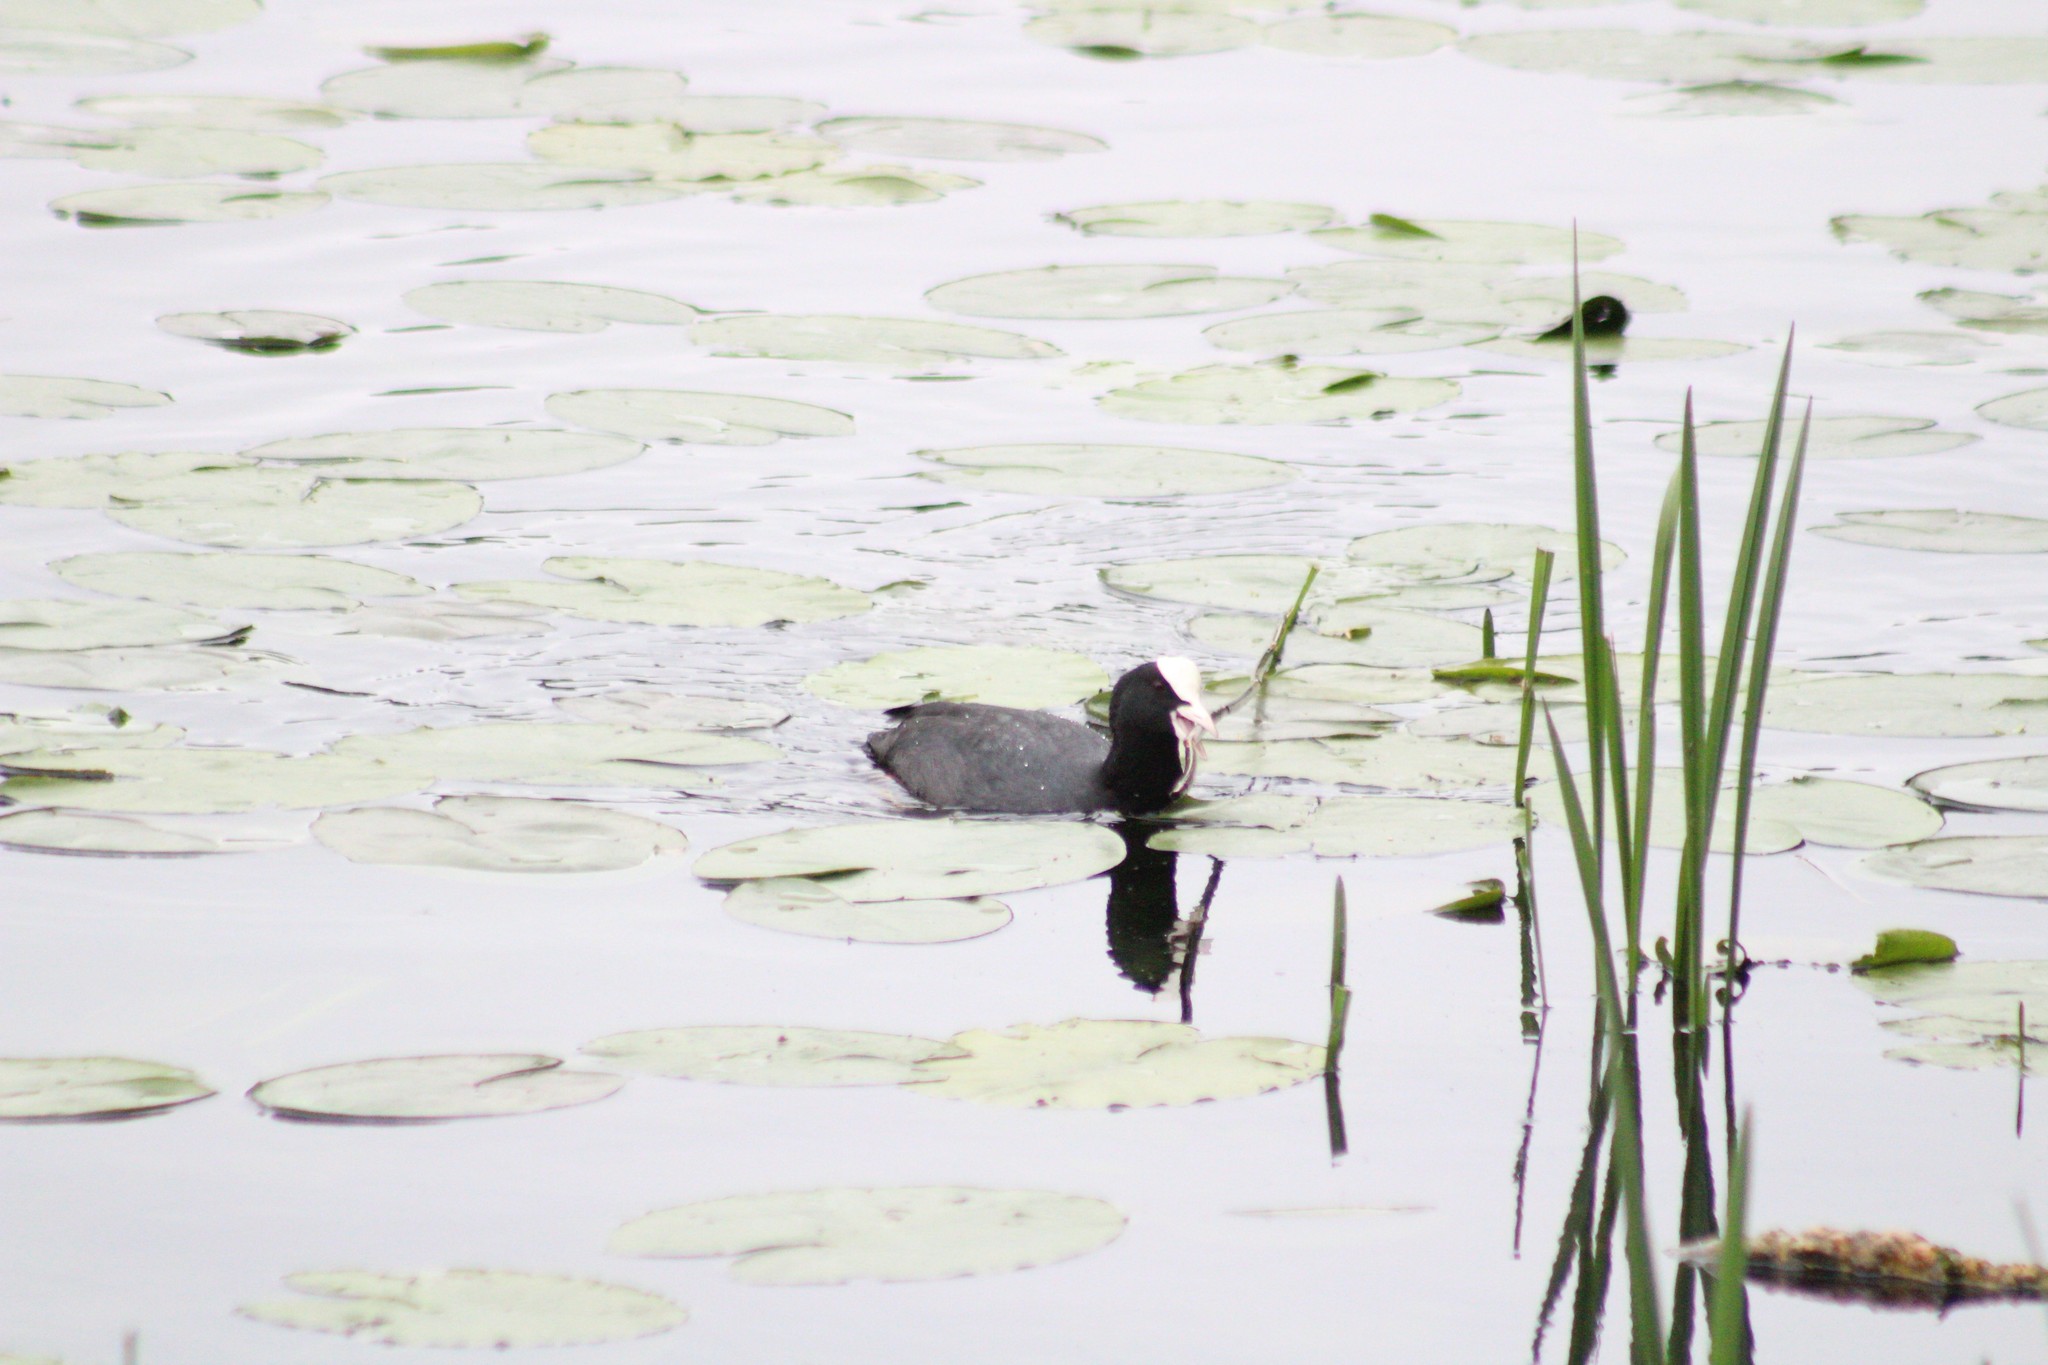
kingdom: Animalia
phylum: Chordata
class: Aves
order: Gruiformes
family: Rallidae
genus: Fulica
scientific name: Fulica atra
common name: Eurasian coot
